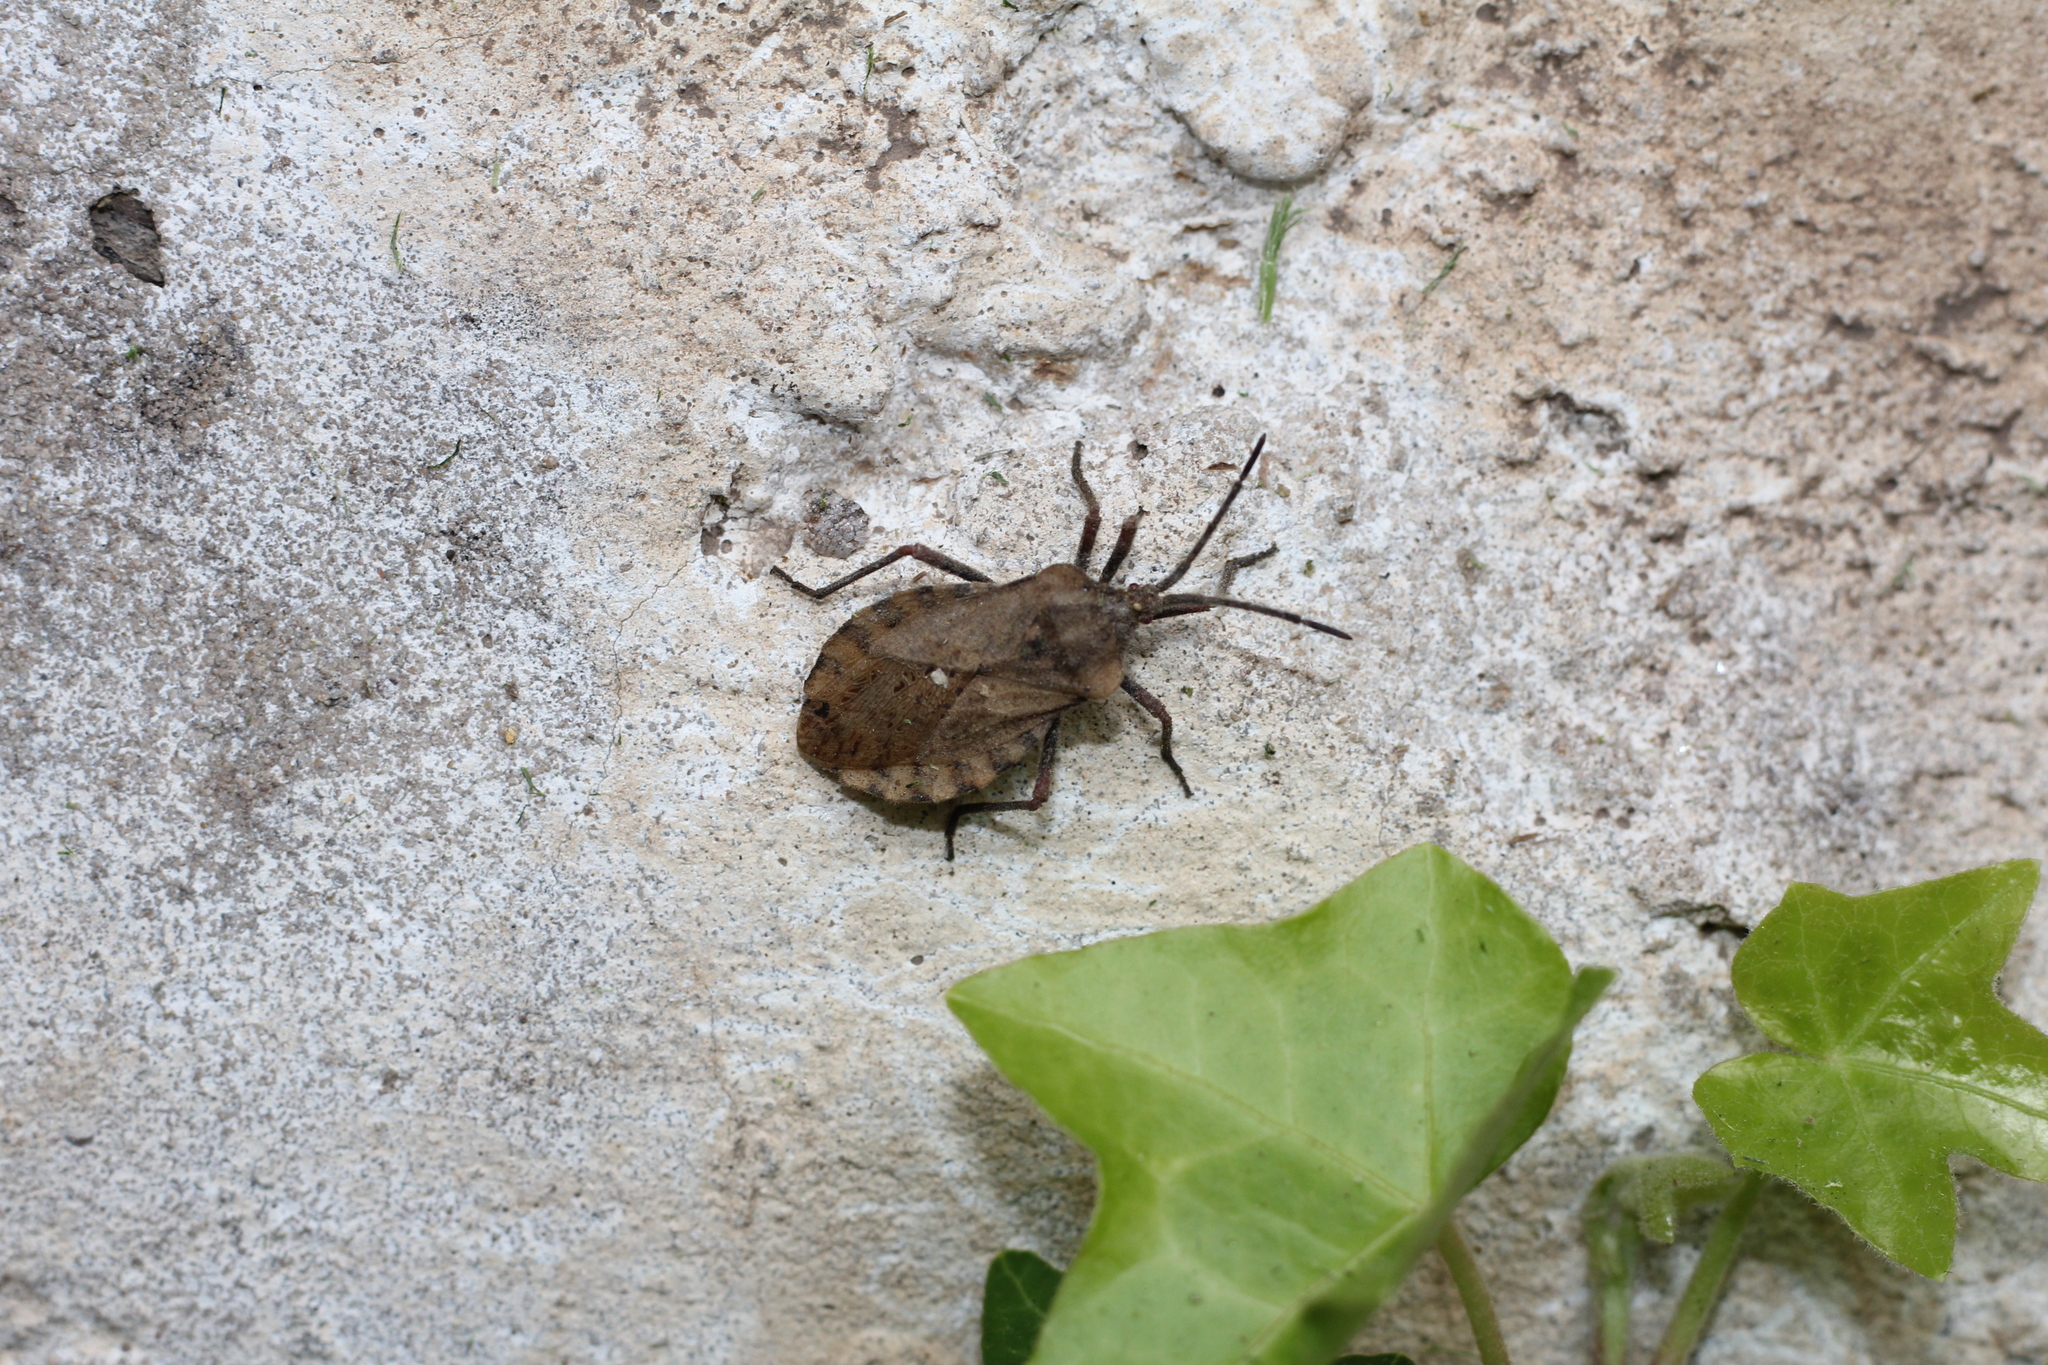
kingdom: Animalia
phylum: Arthropoda
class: Insecta
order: Hemiptera
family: Coreidae
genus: Spartocera
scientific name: Spartocera fusca
